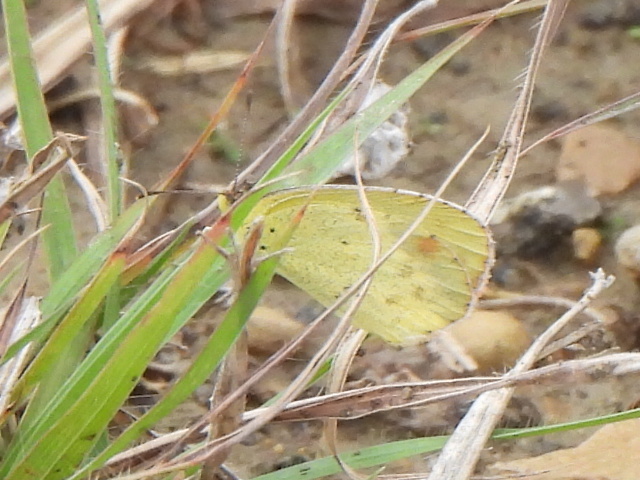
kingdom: Animalia
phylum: Arthropoda
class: Insecta
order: Lepidoptera
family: Pieridae
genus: Pyrisitia
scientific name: Pyrisitia lisa
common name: Little yellow
